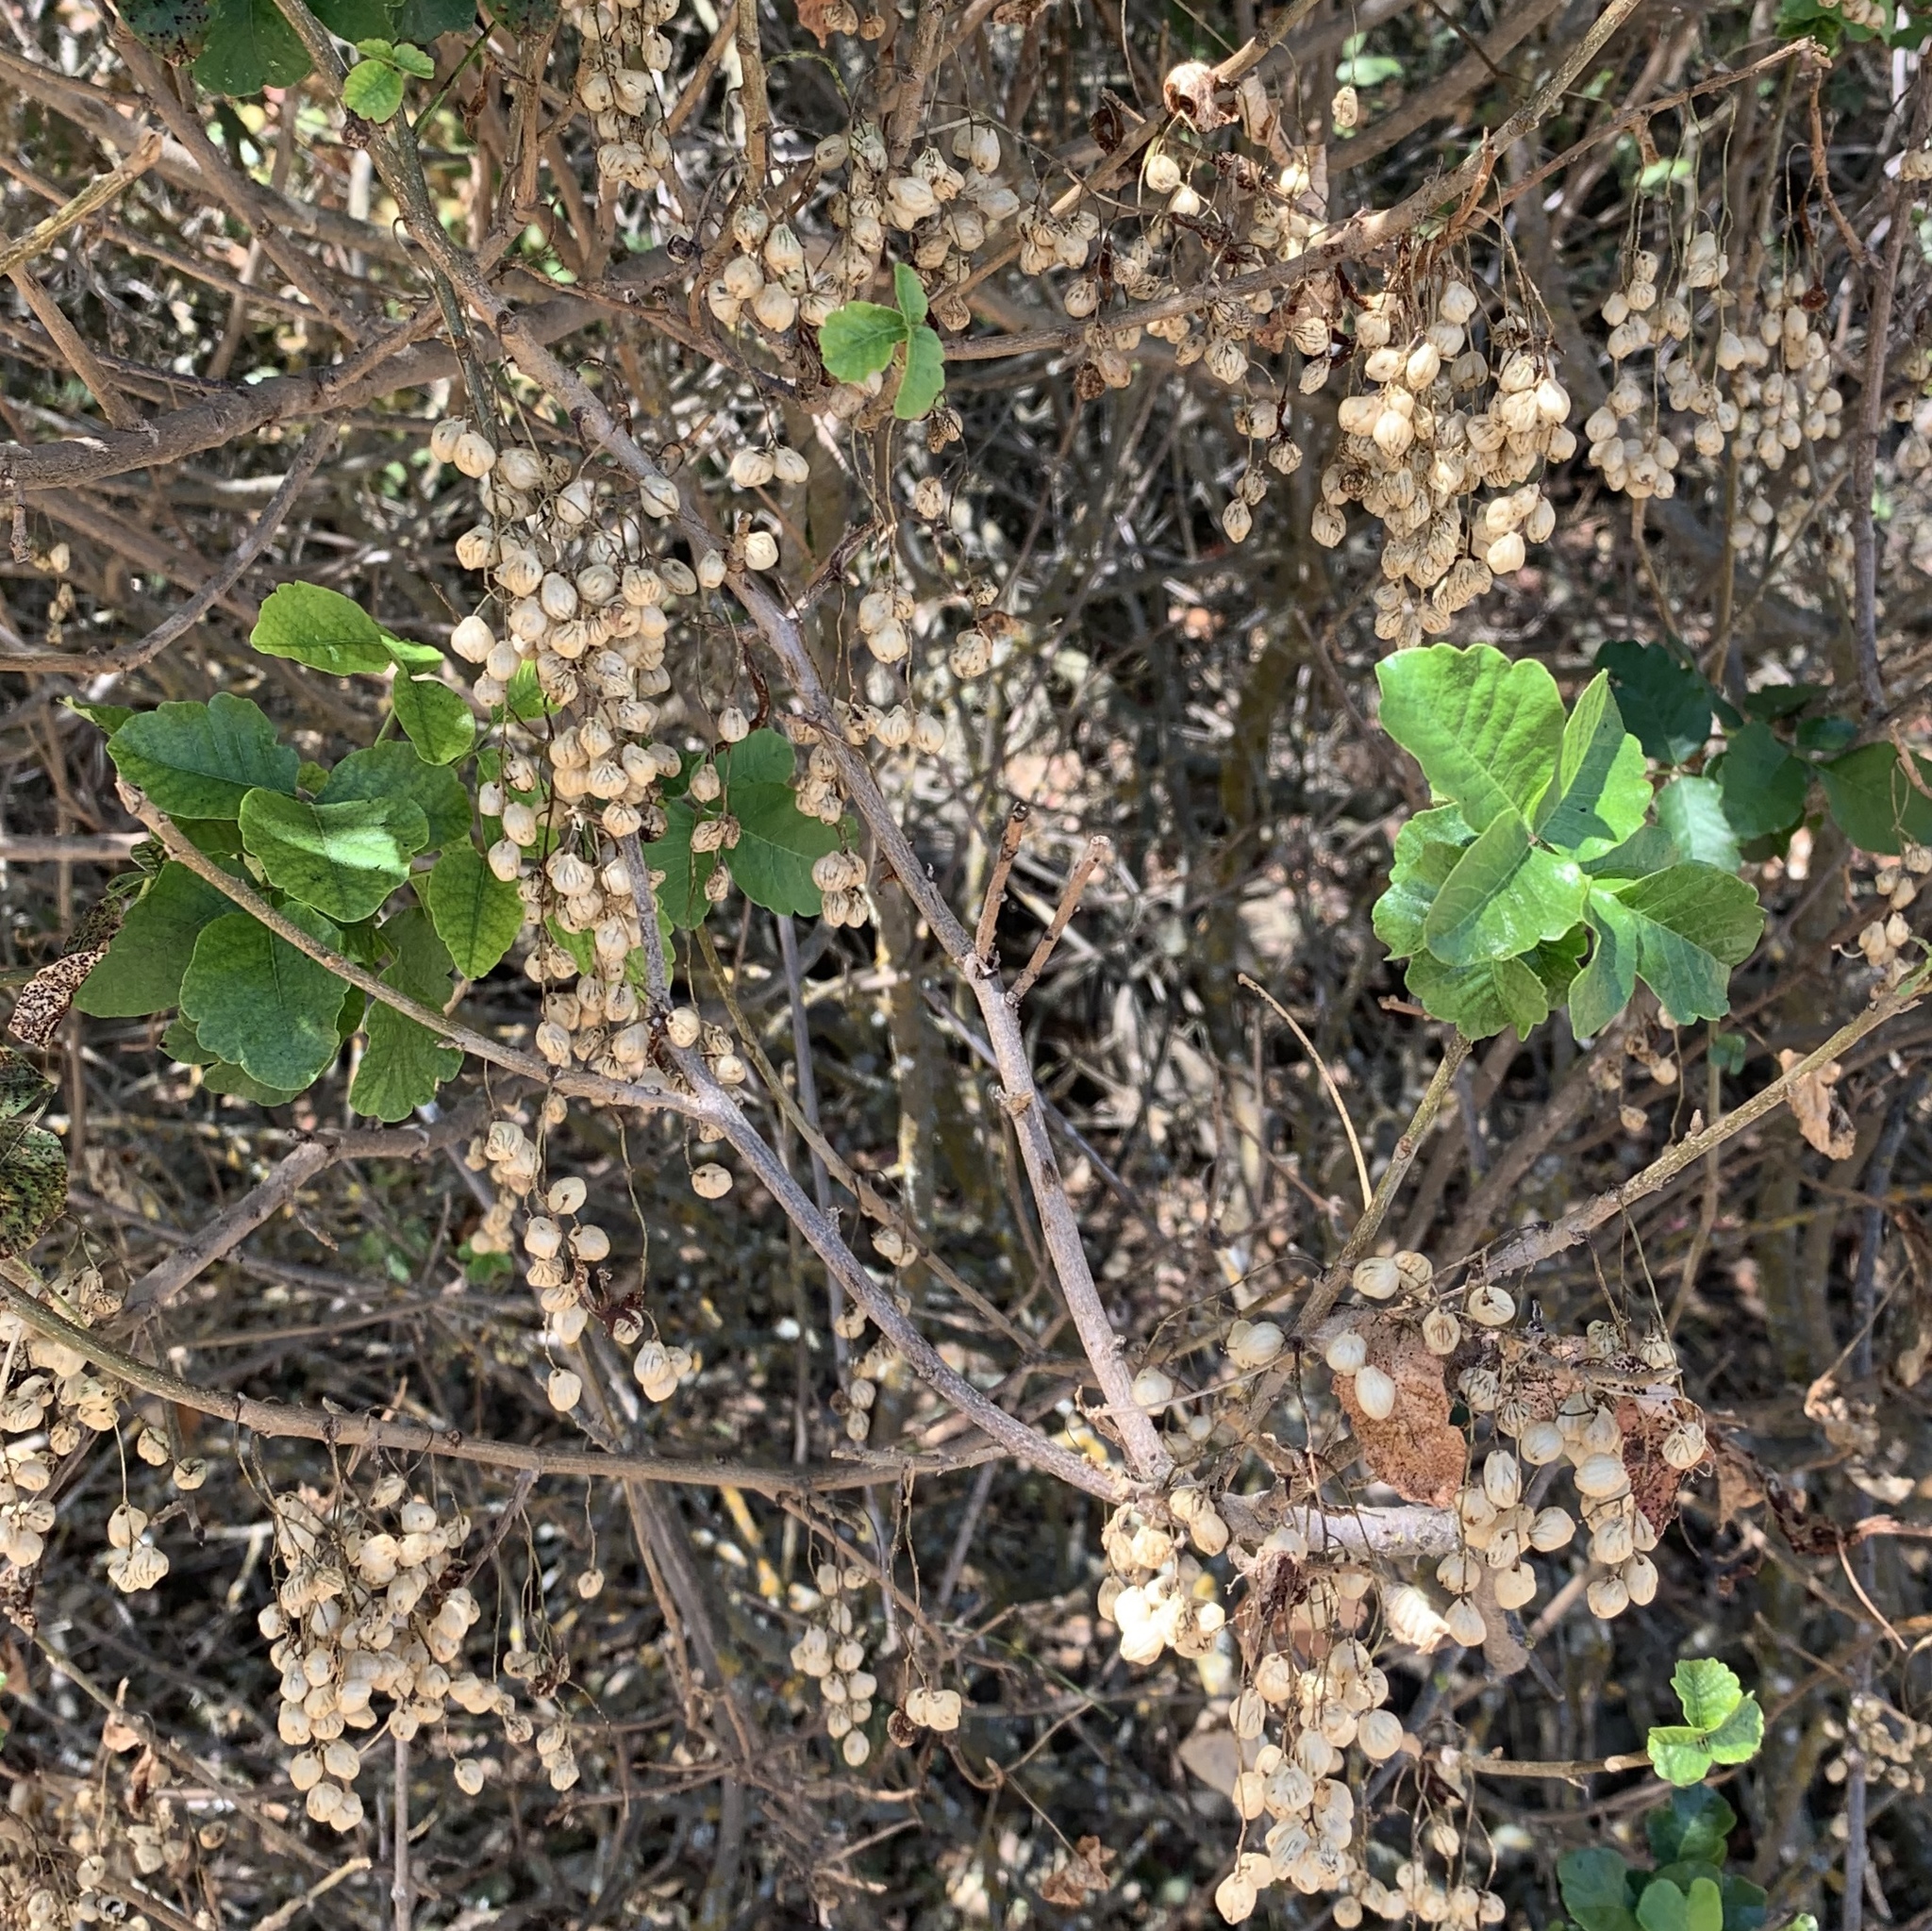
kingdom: Plantae
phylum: Tracheophyta
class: Magnoliopsida
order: Sapindales
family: Anacardiaceae
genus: Toxicodendron
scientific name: Toxicodendron diversilobum
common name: Pacific poison-oak
